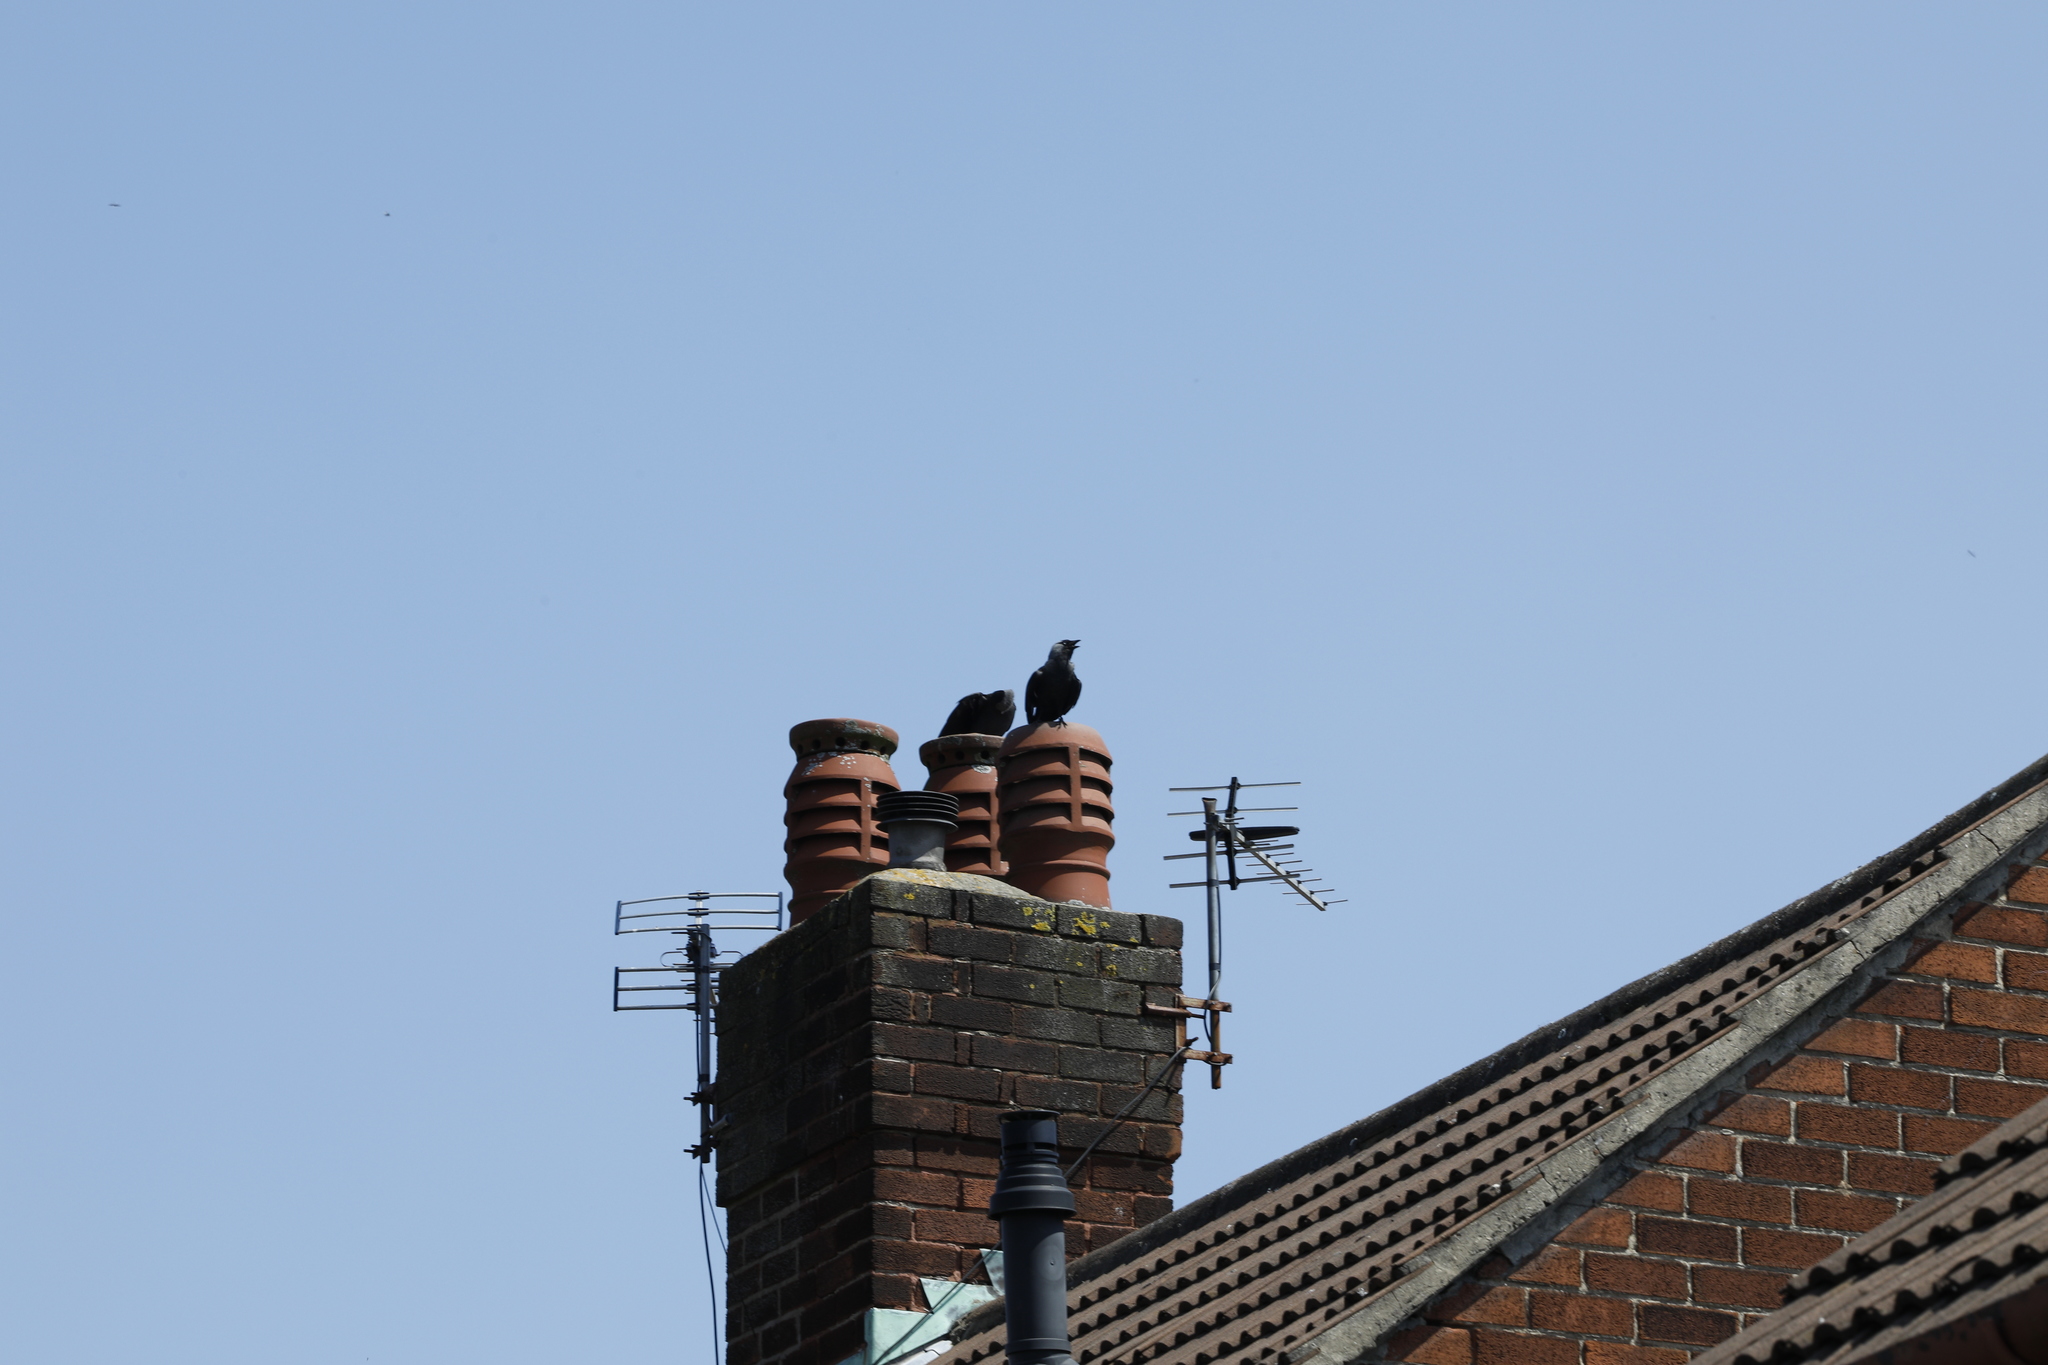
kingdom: Animalia
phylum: Chordata
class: Aves
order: Passeriformes
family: Corvidae
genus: Coloeus
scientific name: Coloeus monedula
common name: Western jackdaw
